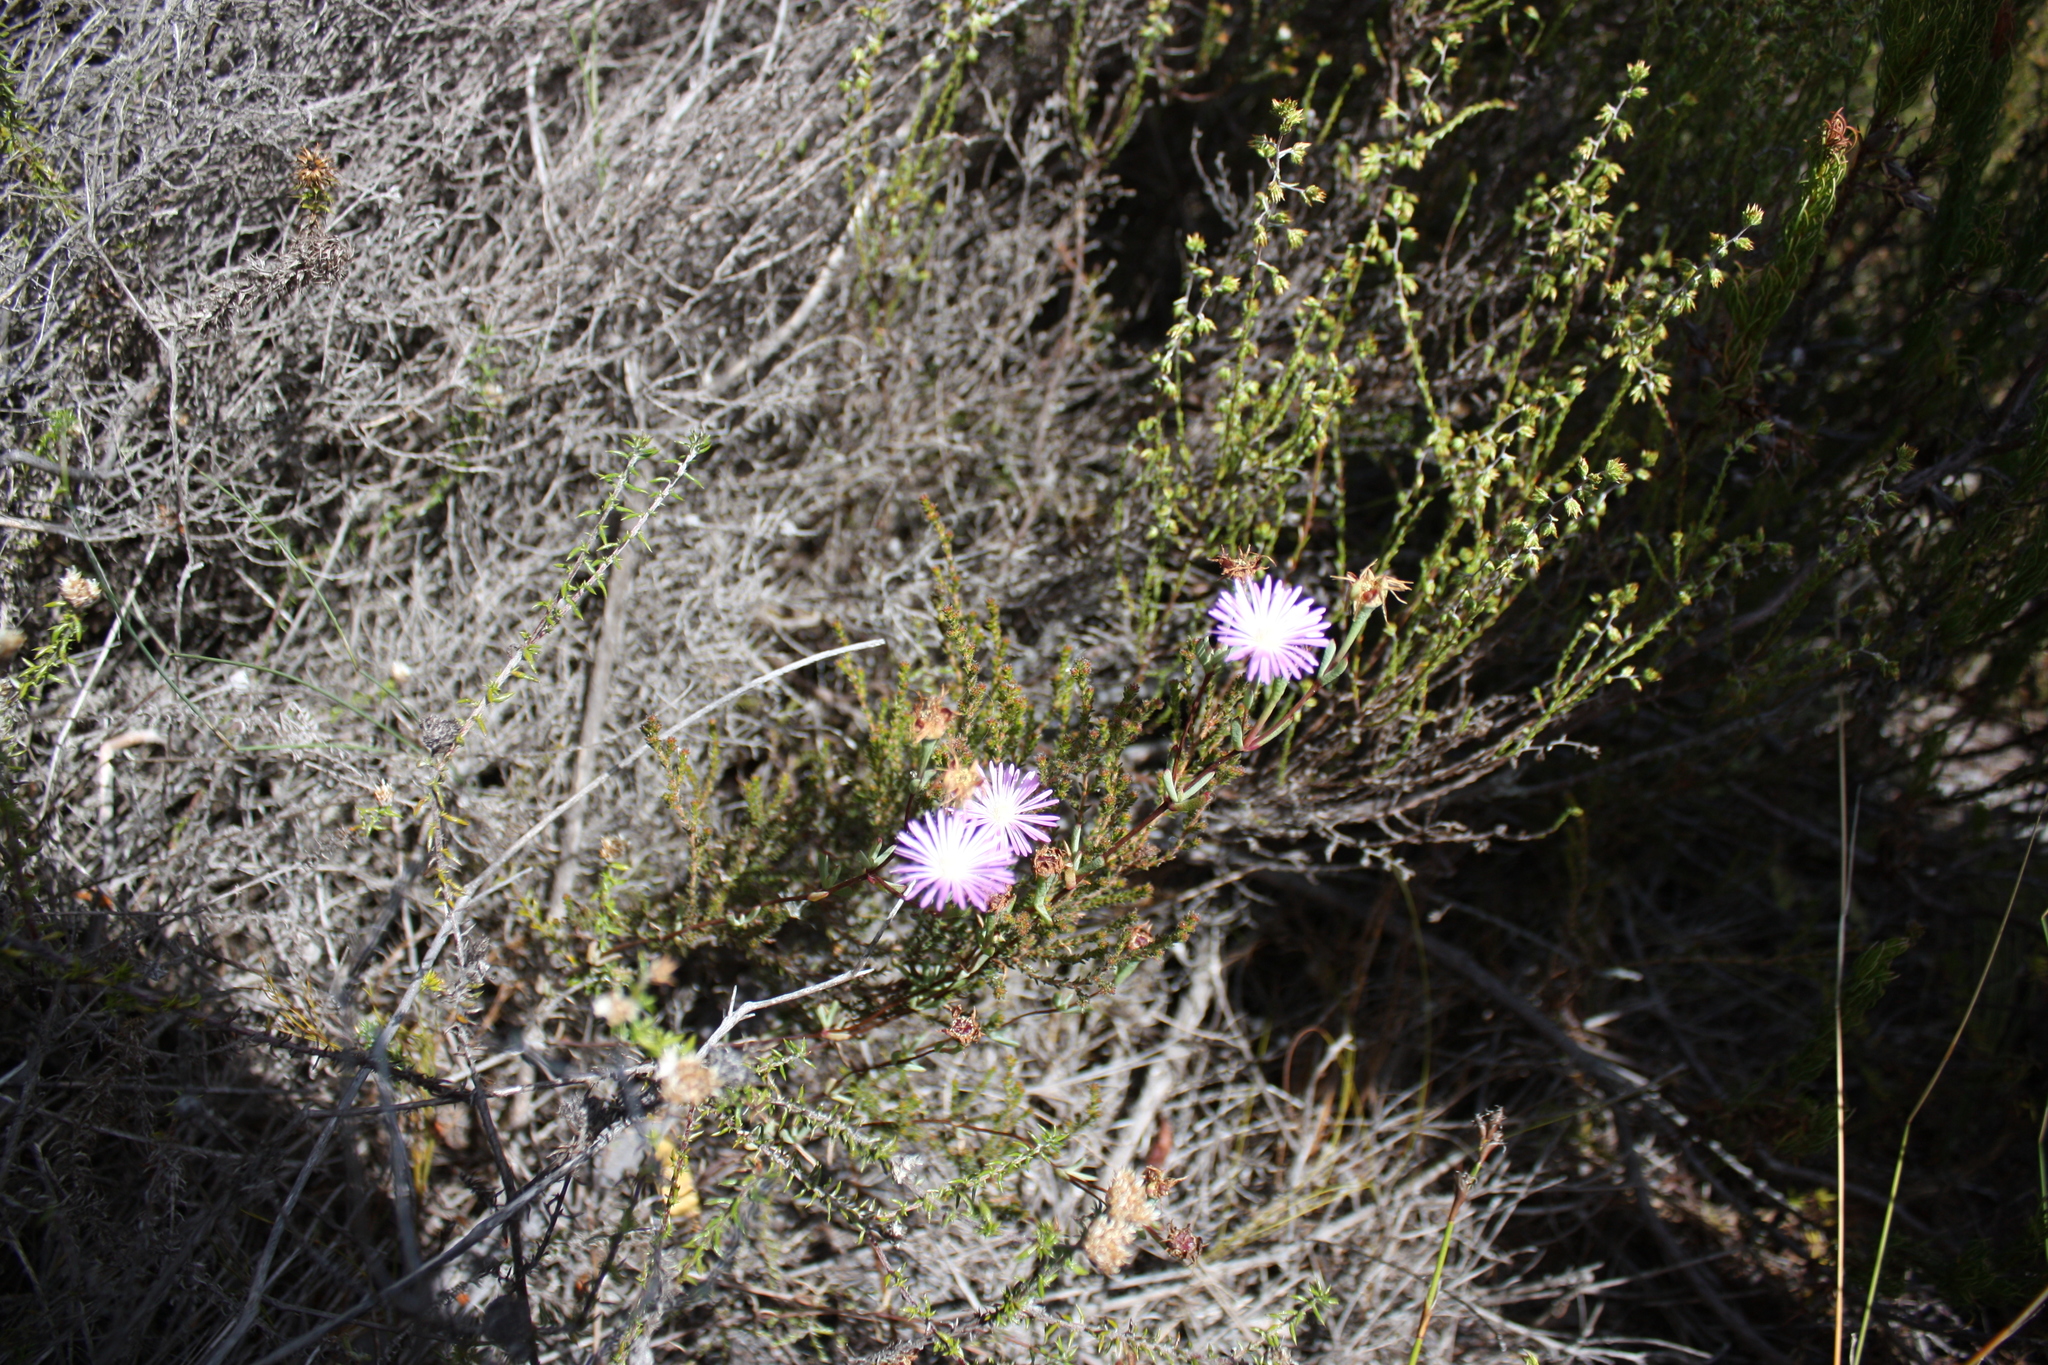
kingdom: Plantae
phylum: Tracheophyta
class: Magnoliopsida
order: Caryophyllales
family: Aizoaceae
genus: Lampranthus
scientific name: Lampranthus emarginatus
